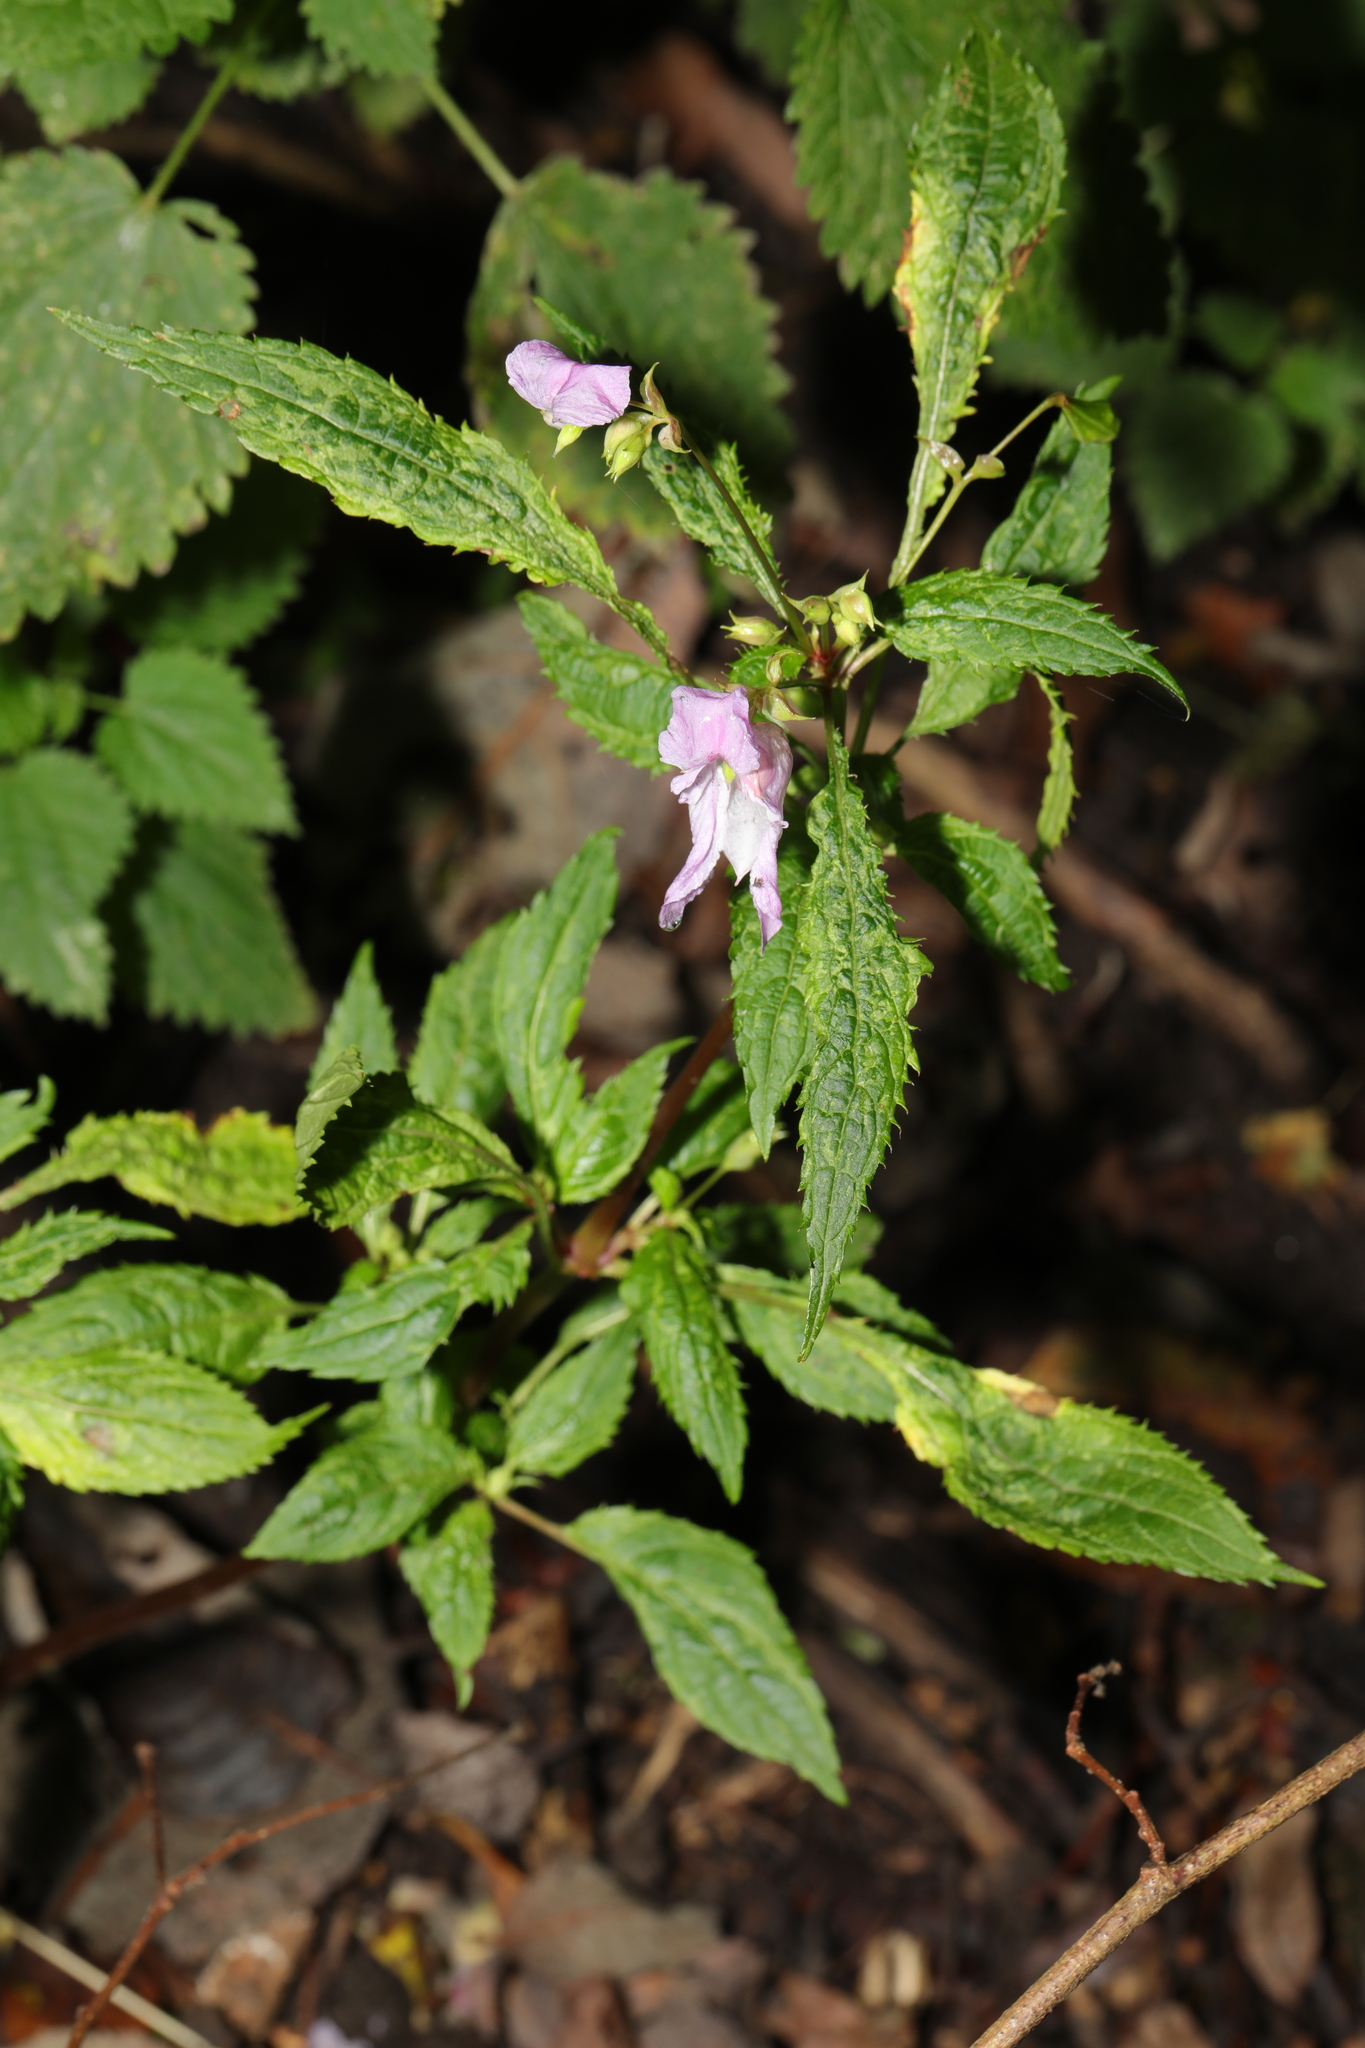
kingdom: Plantae
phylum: Tracheophyta
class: Magnoliopsida
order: Ericales
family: Balsaminaceae
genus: Impatiens
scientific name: Impatiens glandulifera
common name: Himalayan balsam
